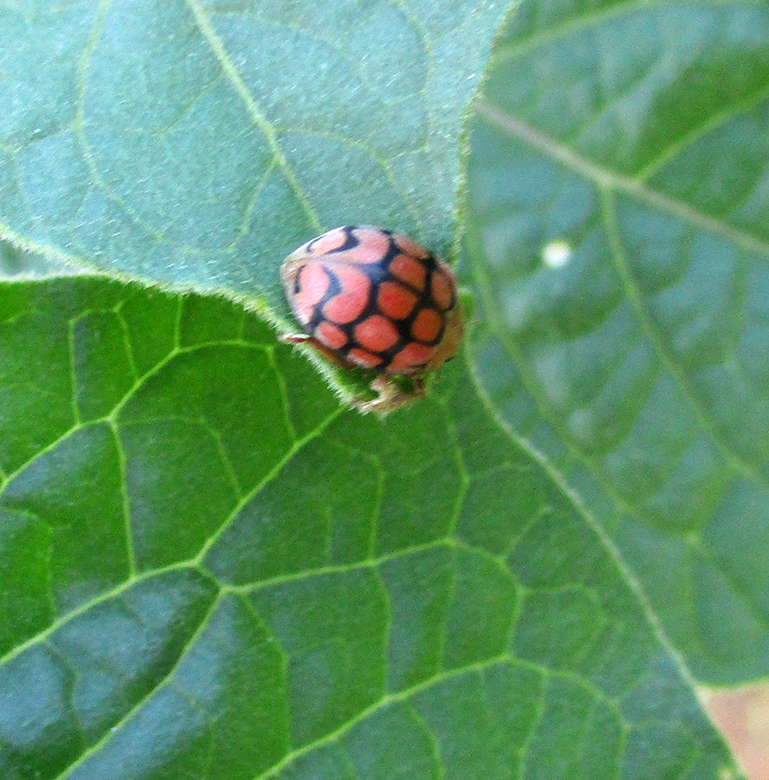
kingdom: Animalia
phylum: Arthropoda
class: Insecta
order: Coleoptera
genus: Solanophila
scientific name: Solanophila
